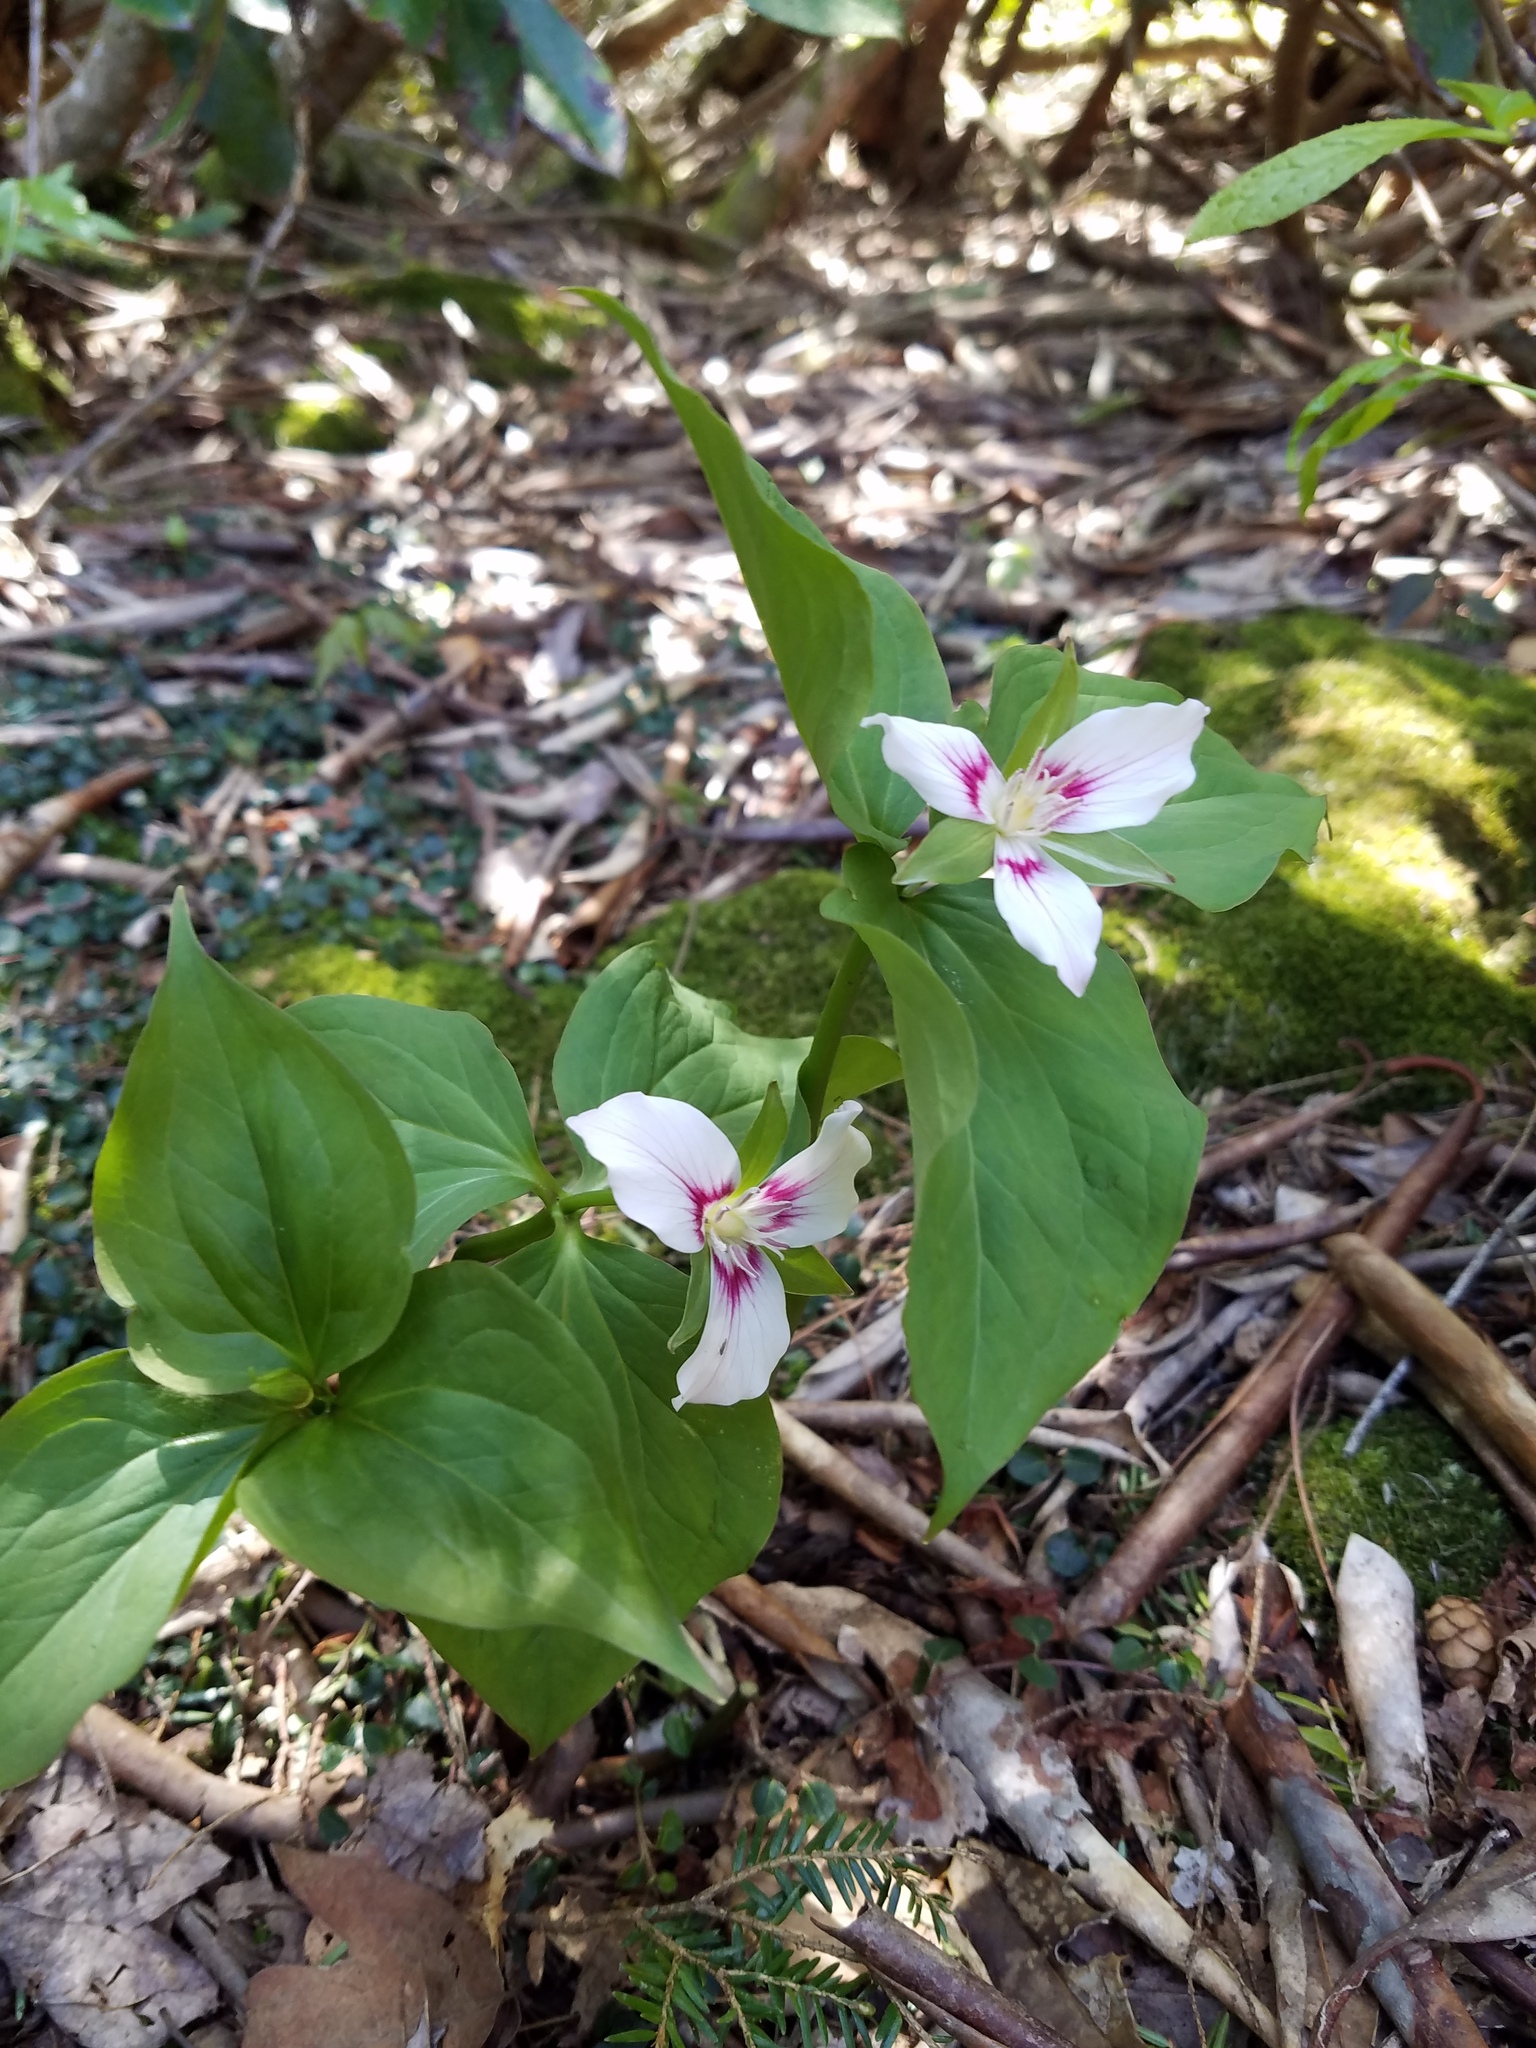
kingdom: Plantae
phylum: Tracheophyta
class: Liliopsida
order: Liliales
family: Melanthiaceae
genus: Trillium
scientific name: Trillium undulatum
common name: Paint trillium
